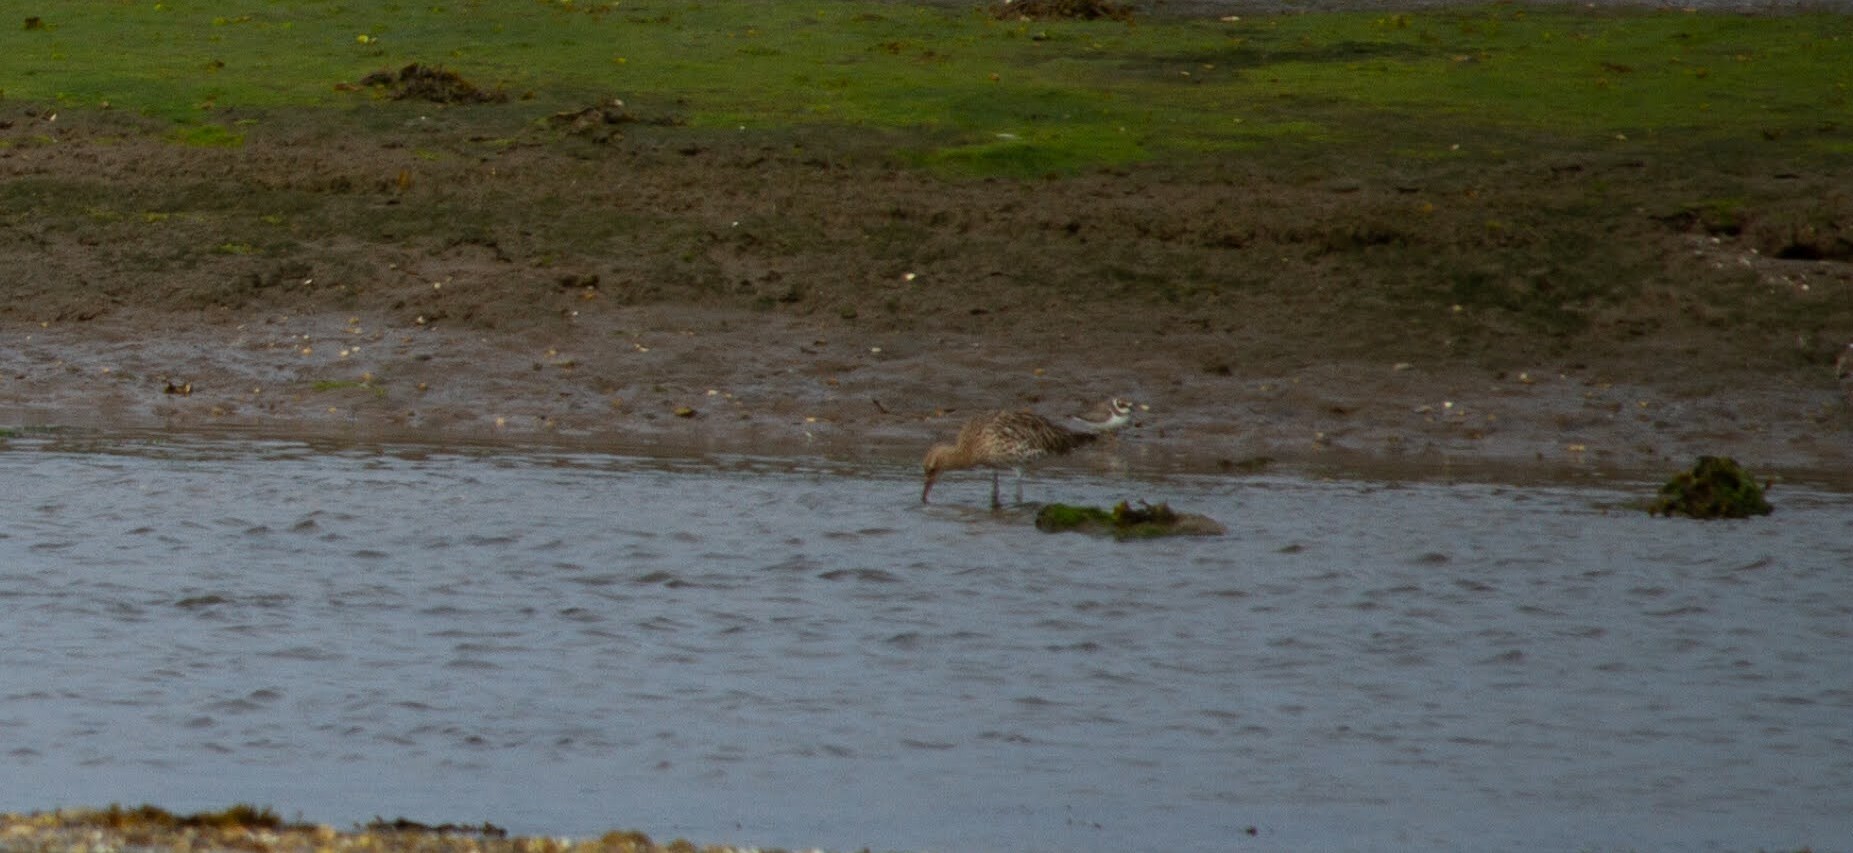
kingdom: Animalia
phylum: Chordata
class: Aves
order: Charadriiformes
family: Scolopacidae
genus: Numenius
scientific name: Numenius arquata
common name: Eurasian curlew
